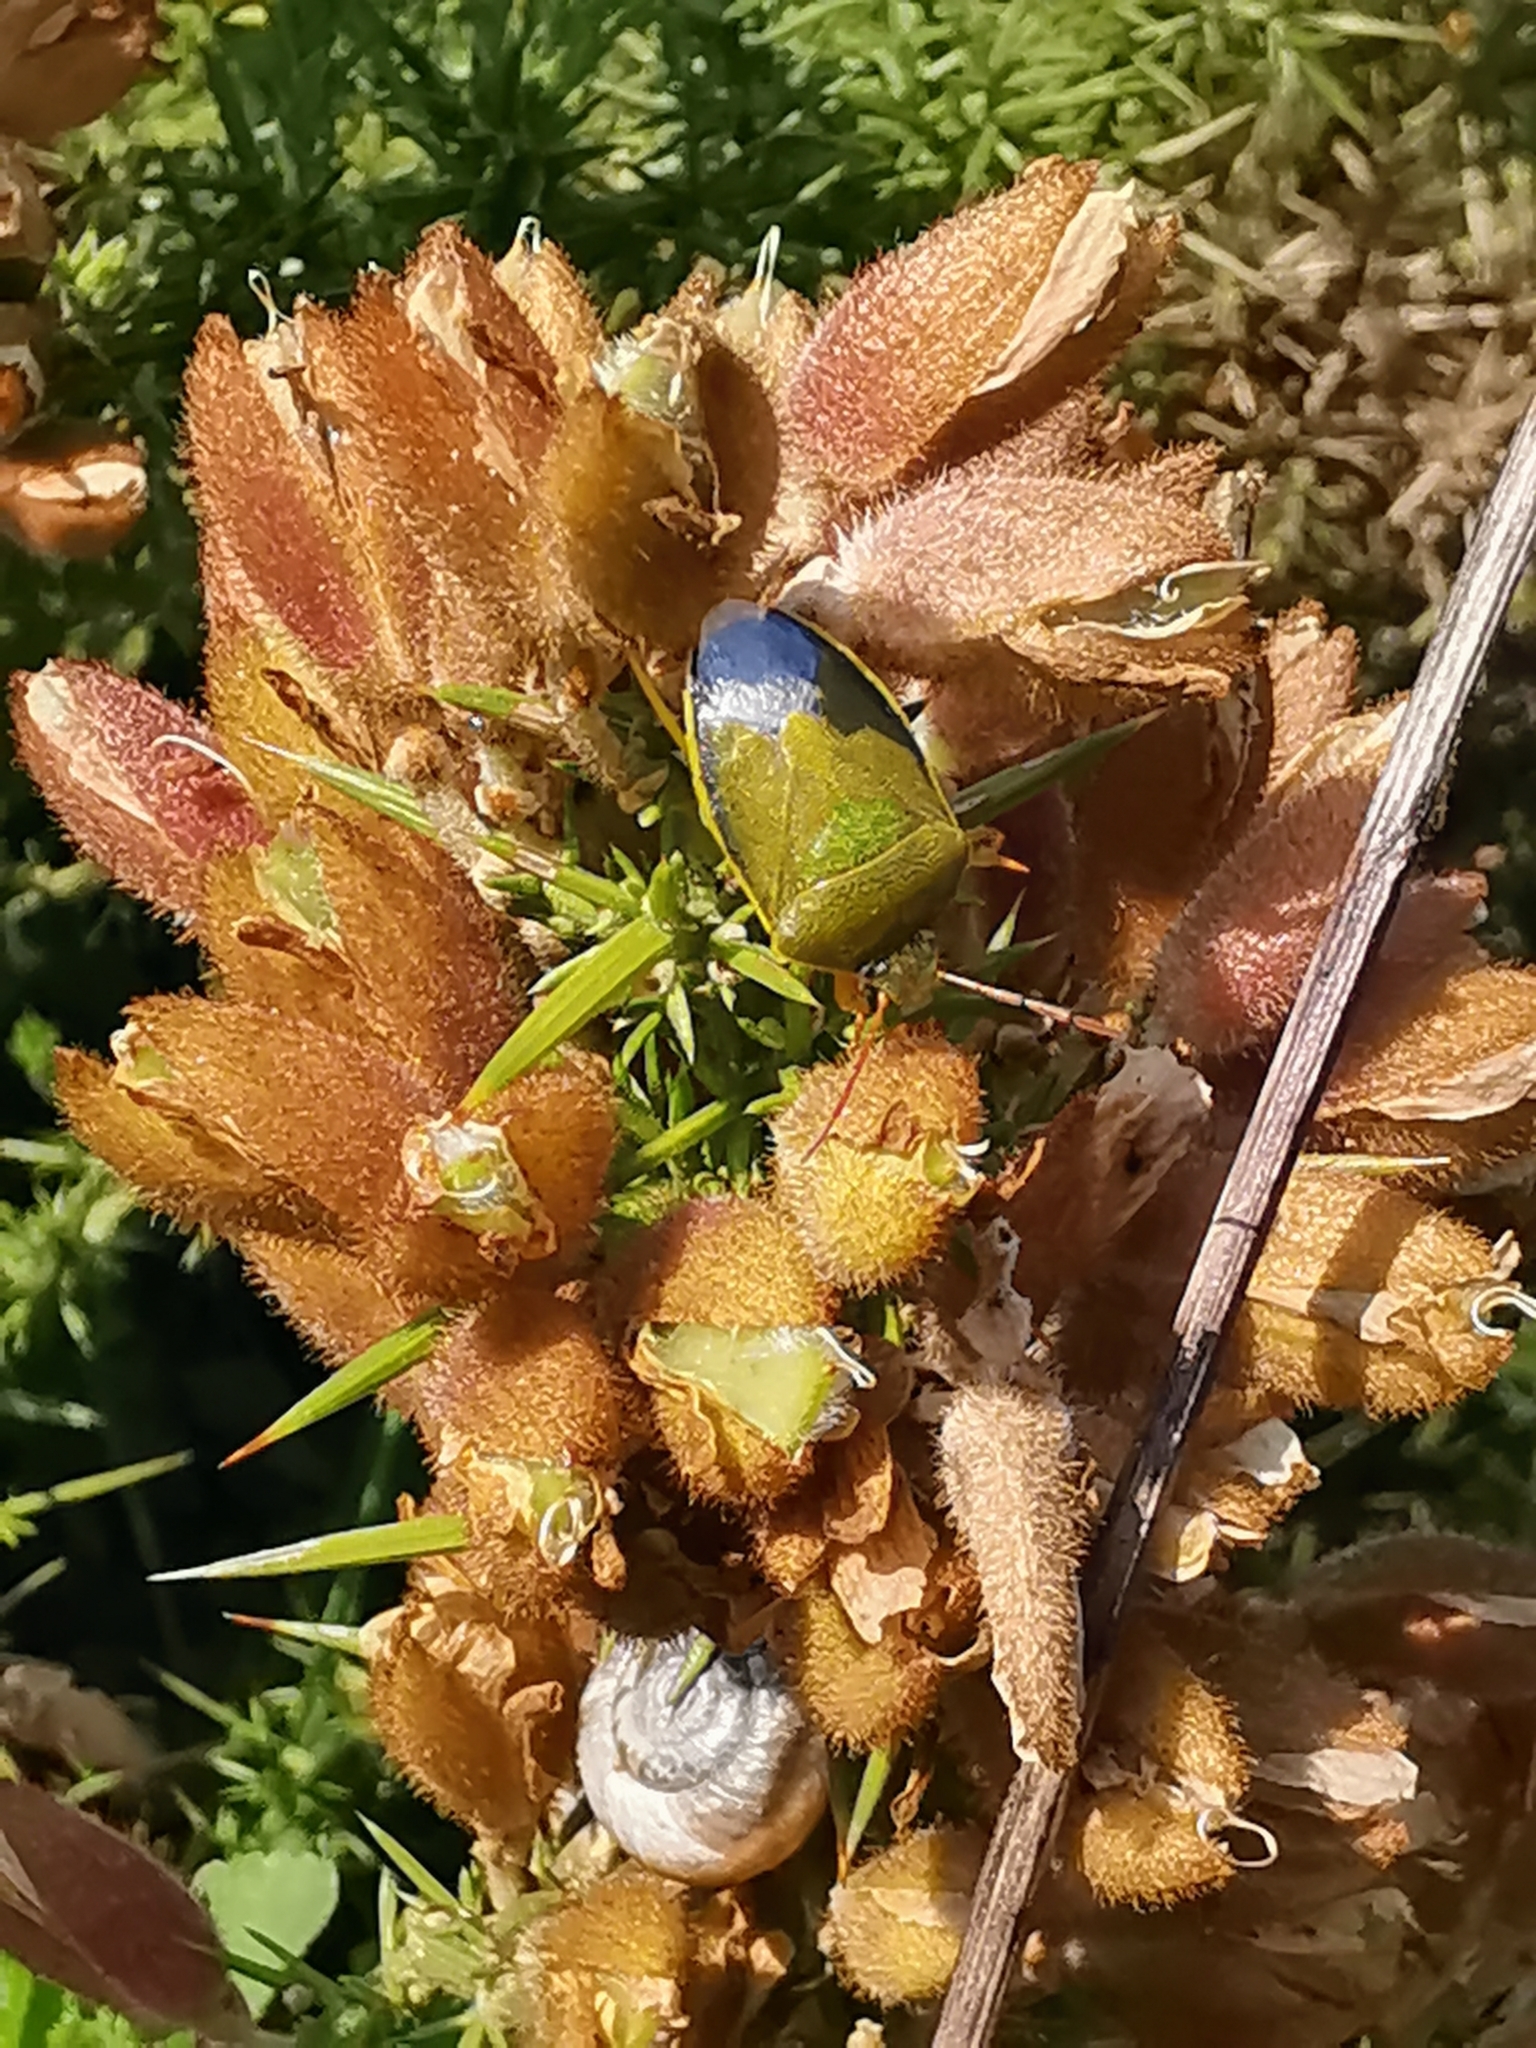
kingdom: Animalia
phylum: Arthropoda
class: Insecta
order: Hemiptera
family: Pentatomidae
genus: Piezodorus
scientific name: Piezodorus lituratus
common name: Stink bug
